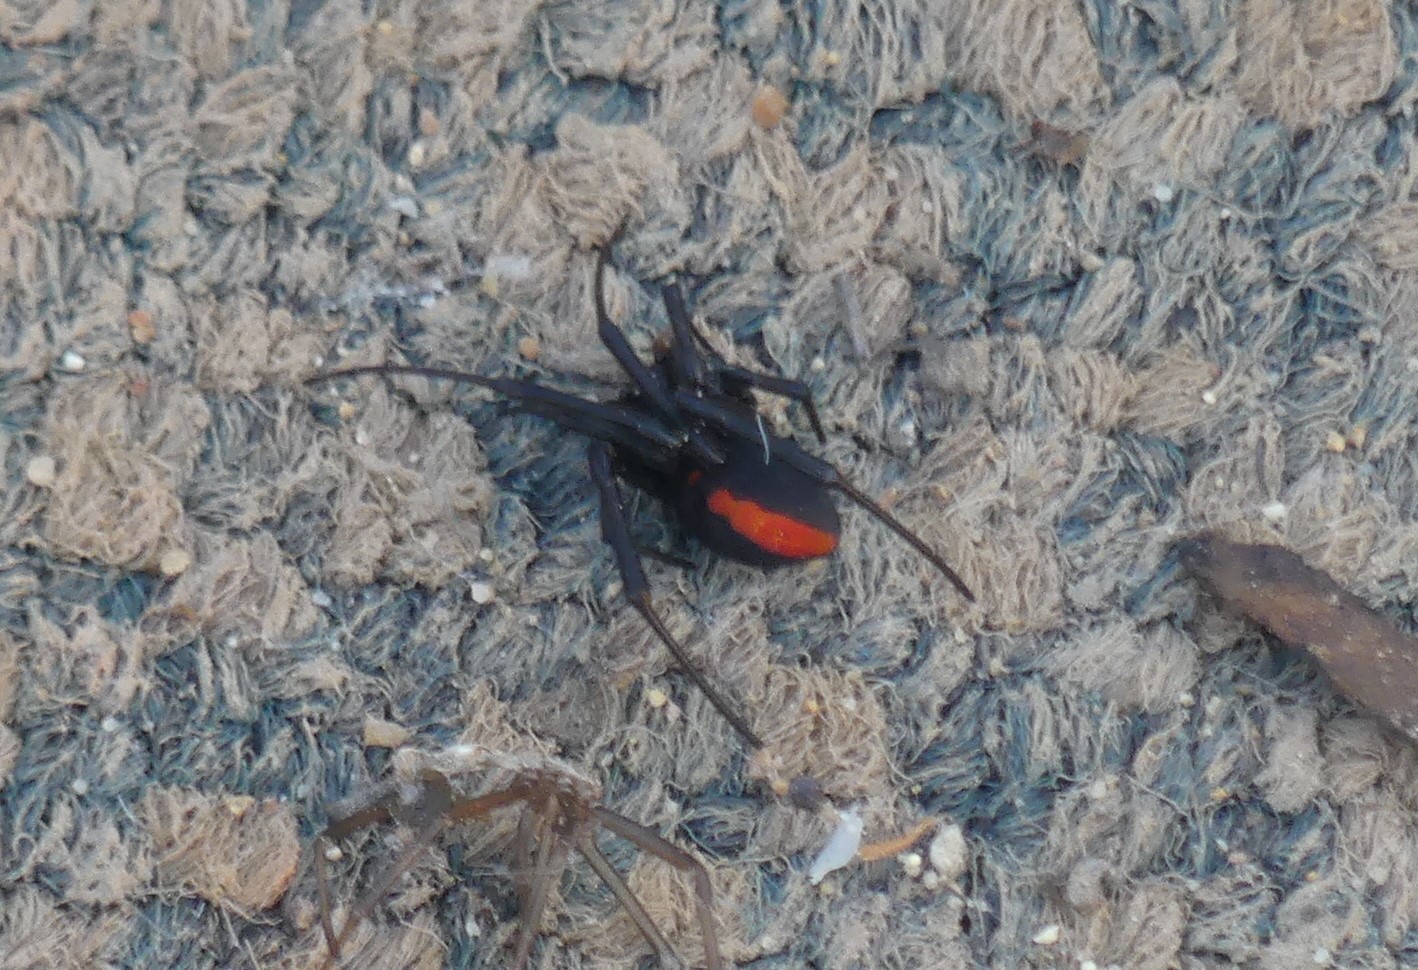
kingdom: Animalia
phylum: Arthropoda
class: Arachnida
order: Araneae
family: Theridiidae
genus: Latrodectus
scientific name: Latrodectus hasselti
